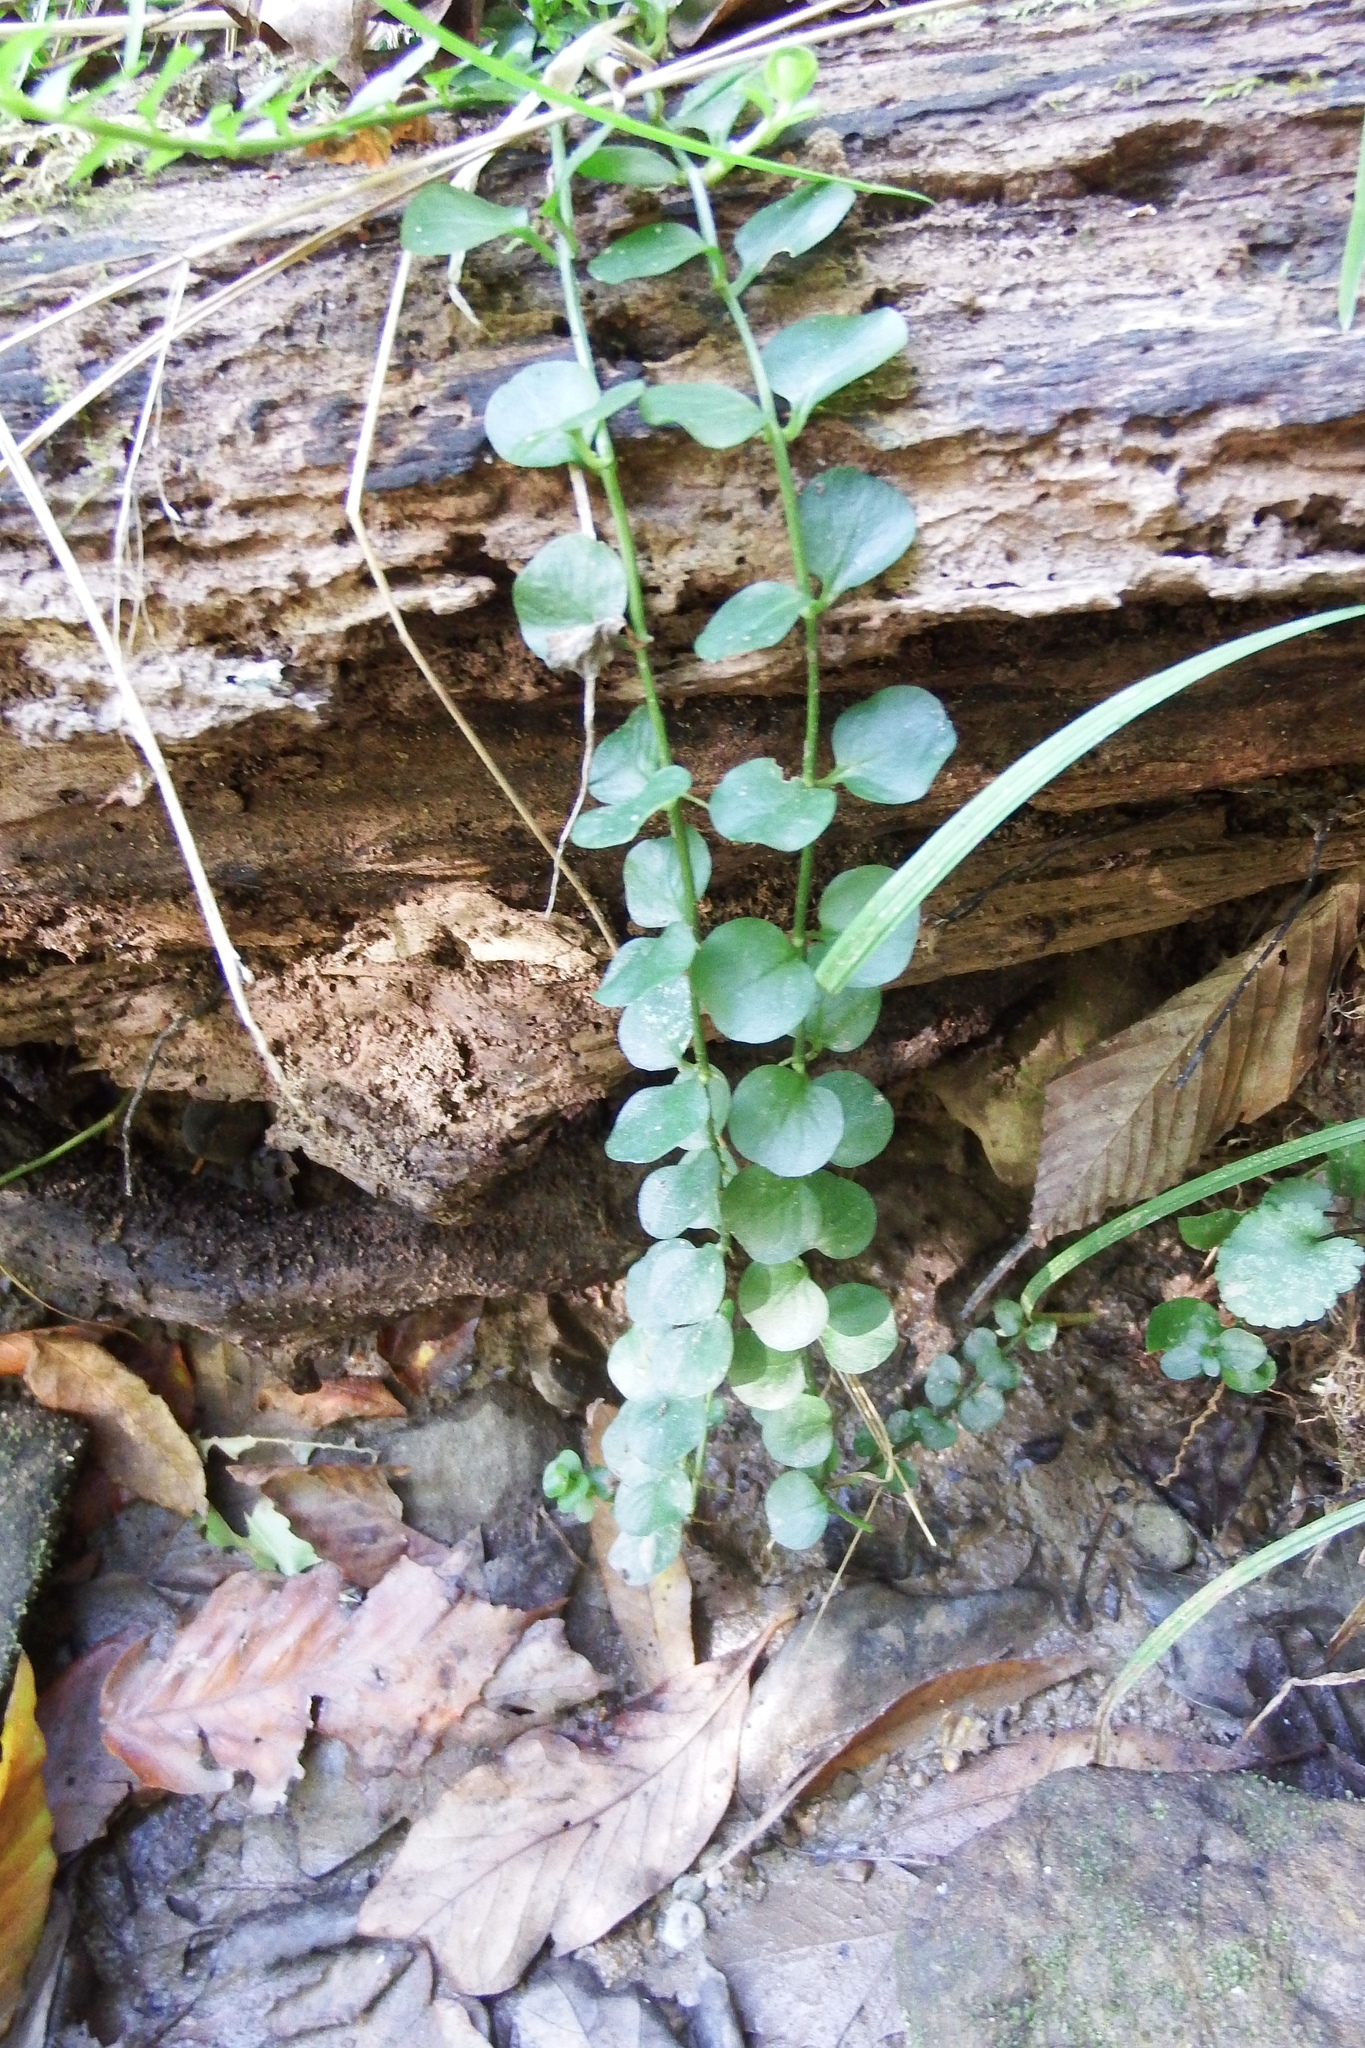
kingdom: Plantae
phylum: Tracheophyta
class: Magnoliopsida
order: Ericales
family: Primulaceae
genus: Lysimachia
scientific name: Lysimachia nummularia
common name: Moneywort
